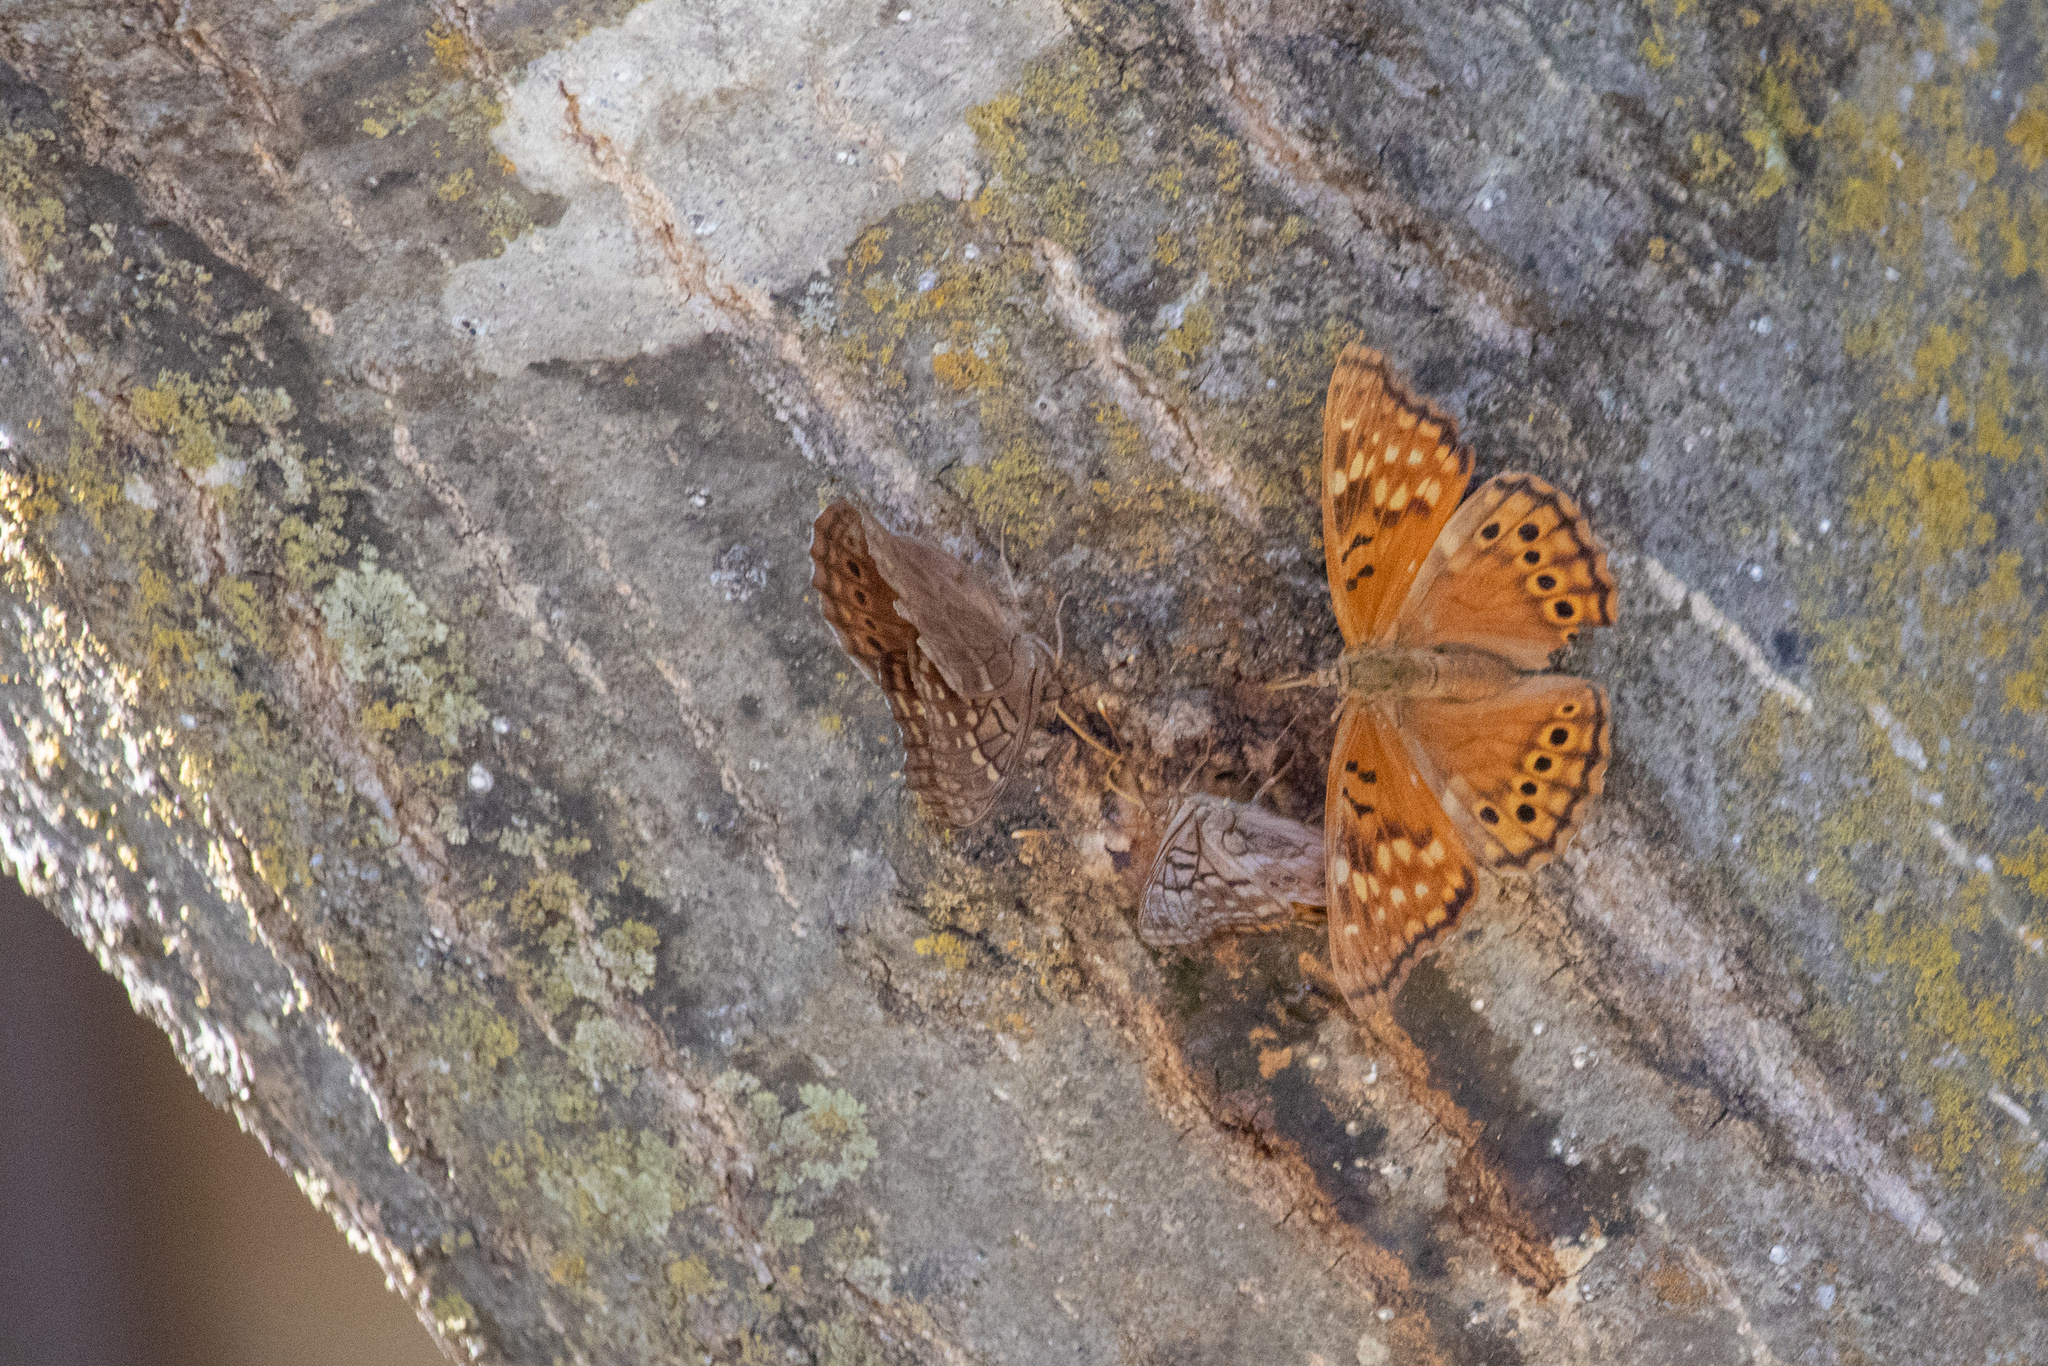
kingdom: Animalia
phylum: Arthropoda
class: Insecta
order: Lepidoptera
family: Nymphalidae
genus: Asterocampa
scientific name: Asterocampa clyton
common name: Tawny emperor
